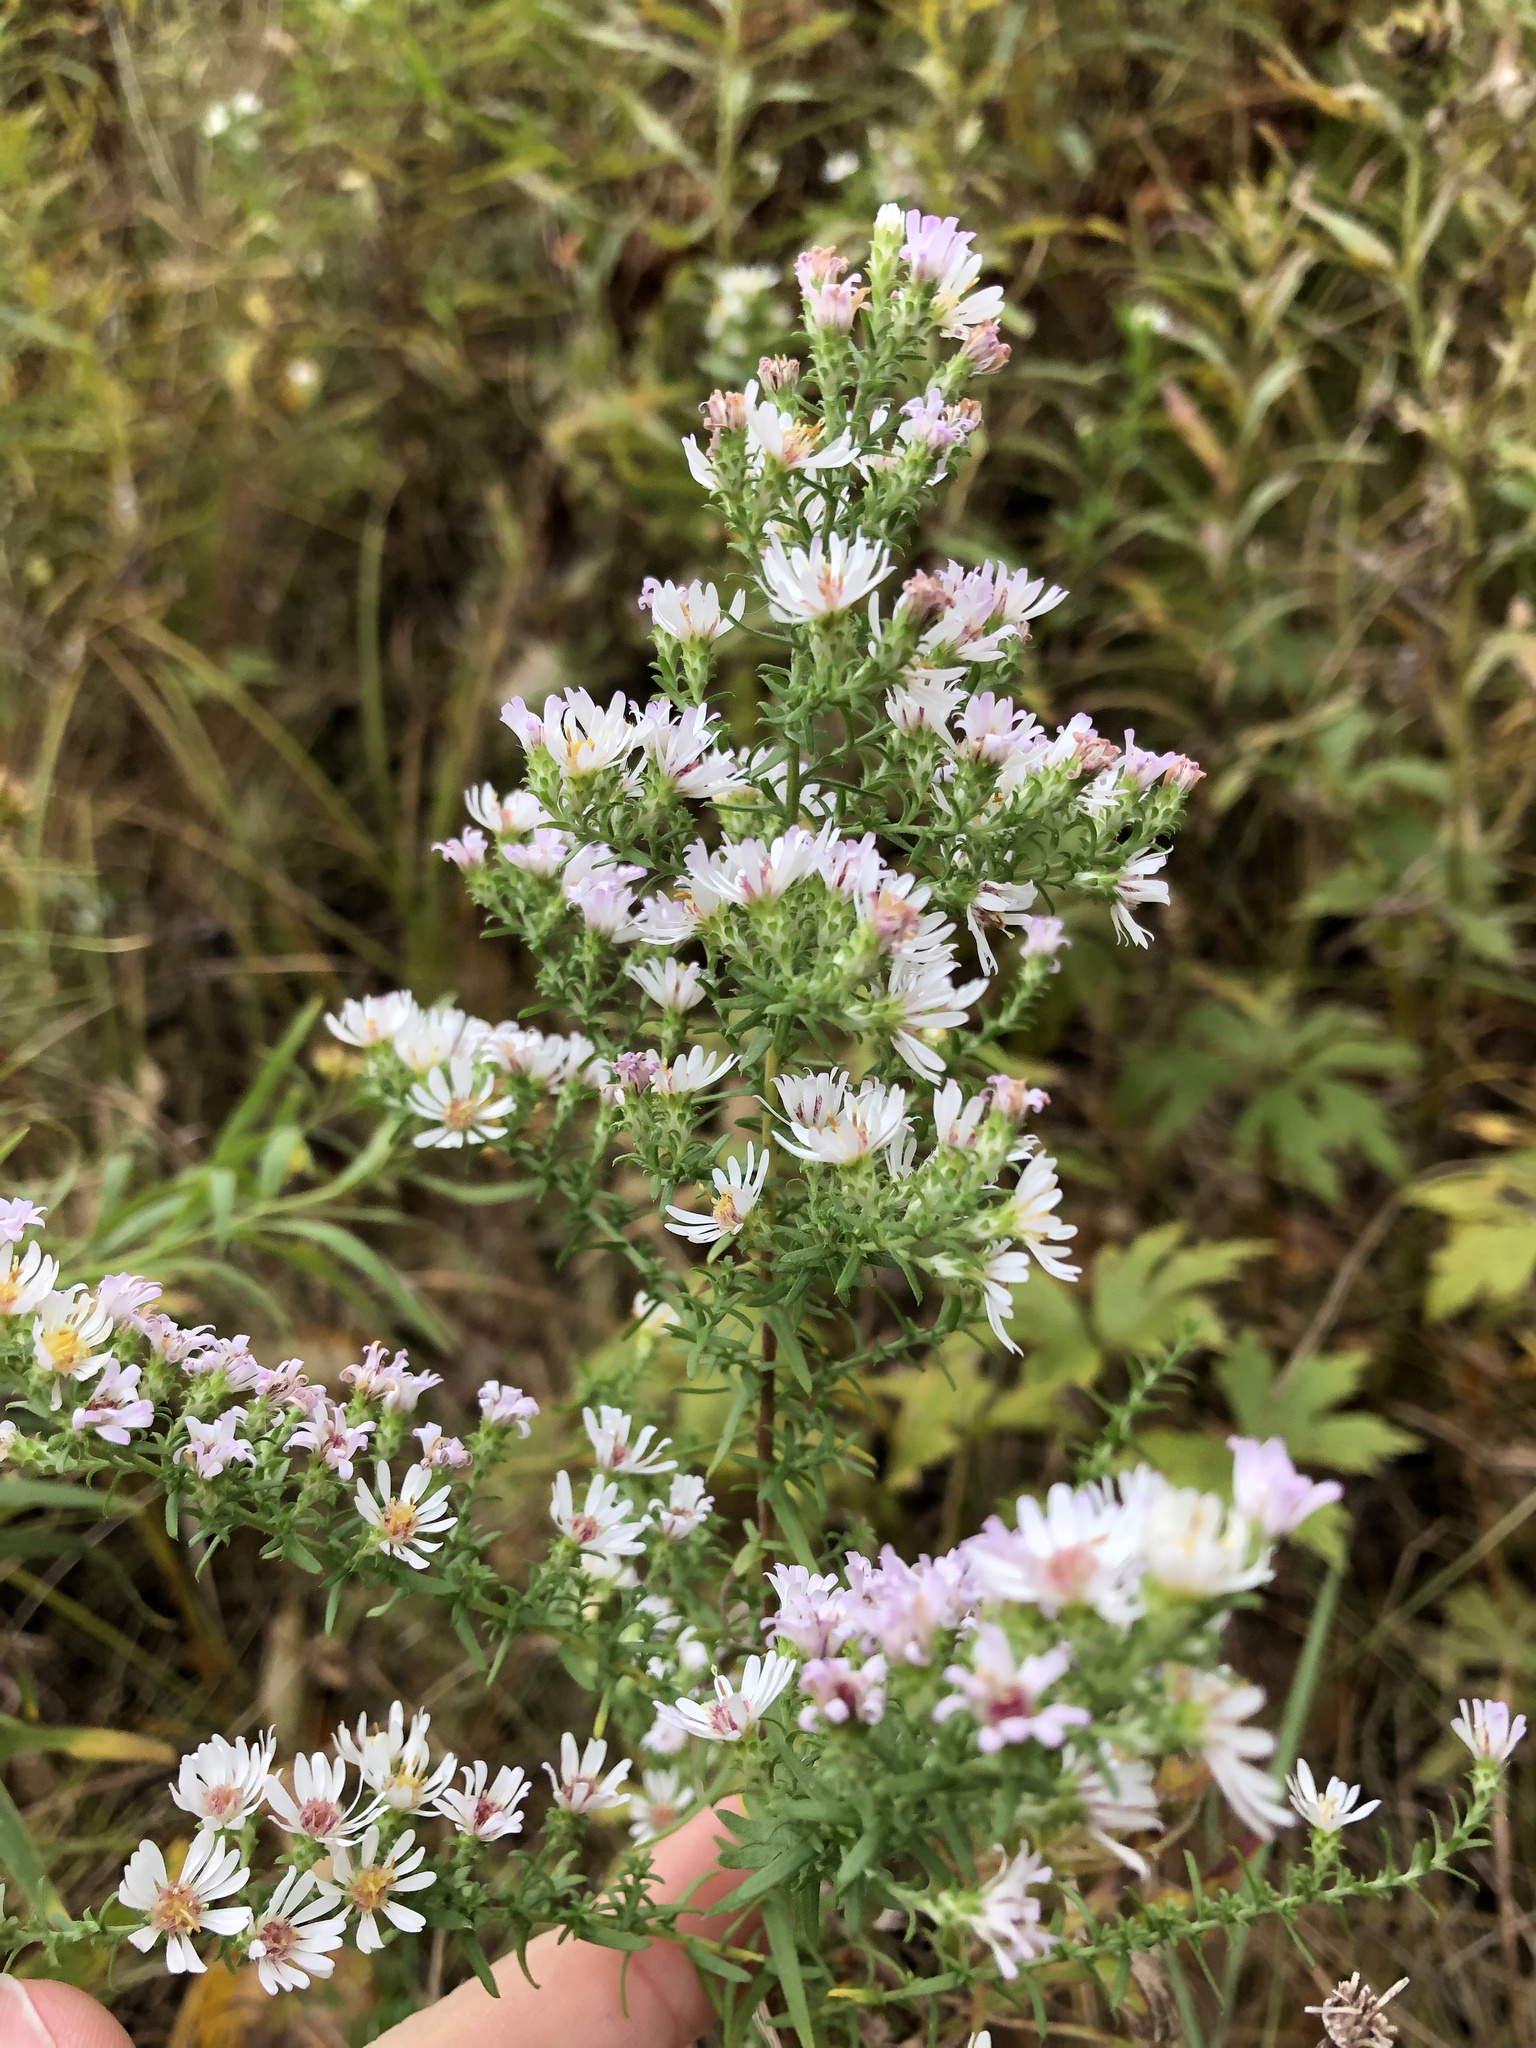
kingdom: Plantae
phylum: Tracheophyta
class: Magnoliopsida
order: Asterales
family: Asteraceae
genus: Symphyotrichum
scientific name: Symphyotrichum ericoides
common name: Heath aster
